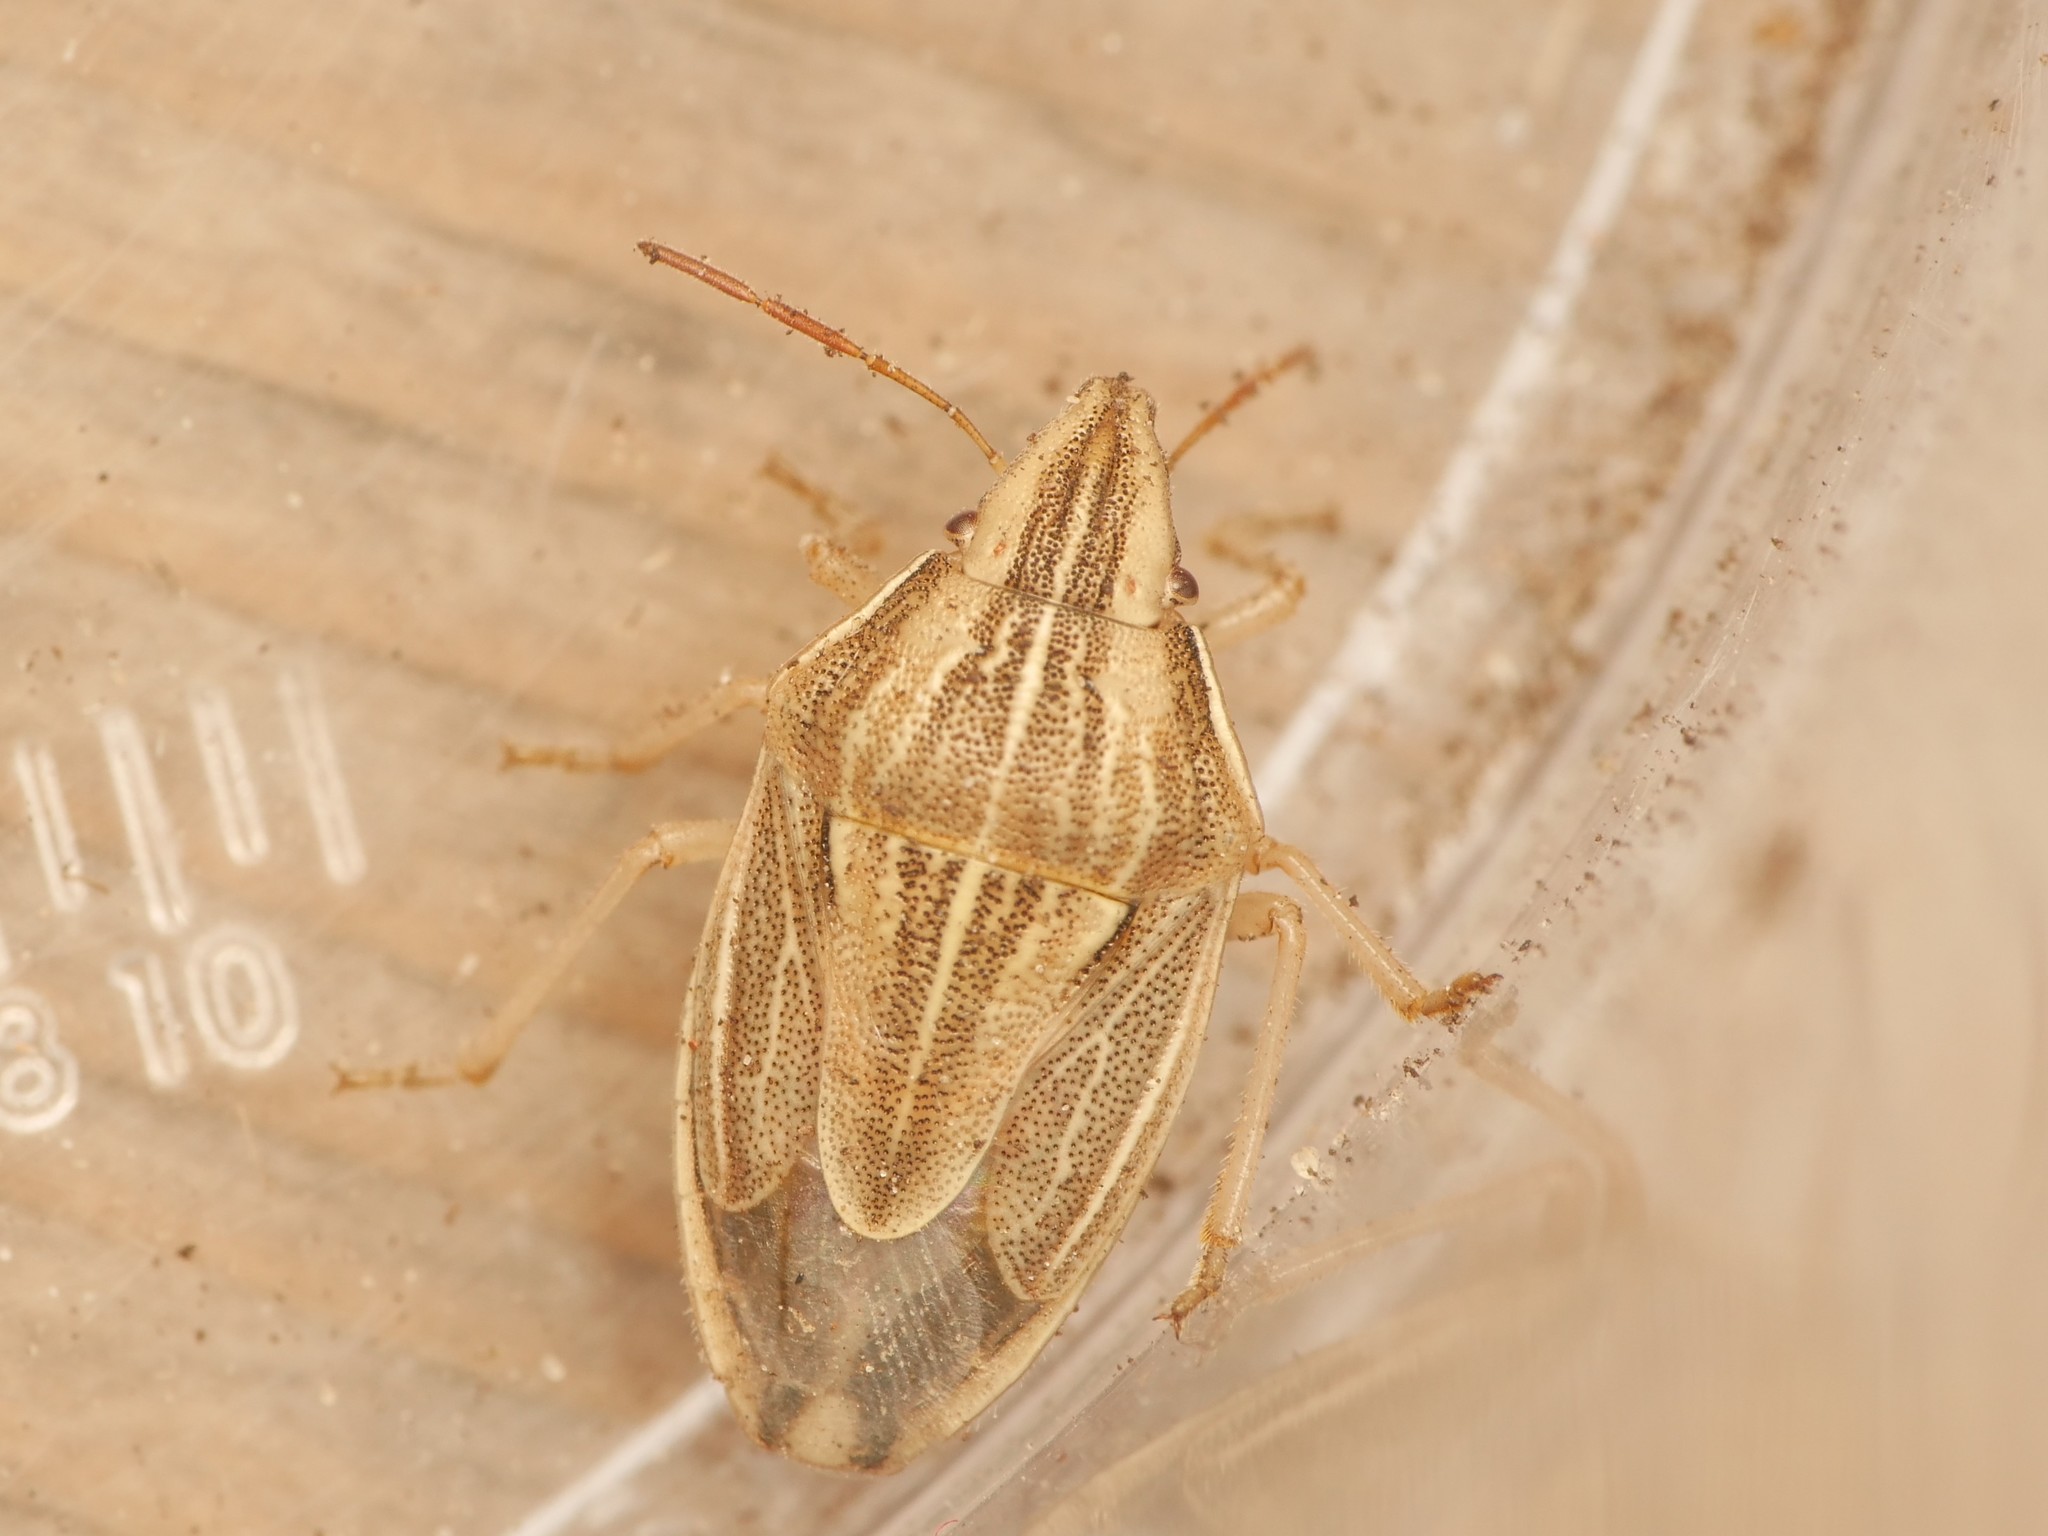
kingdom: Animalia
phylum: Arthropoda
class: Insecta
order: Hemiptera
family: Pentatomidae
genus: Aelia
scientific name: Aelia acuminata
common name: Bishop's mitre
